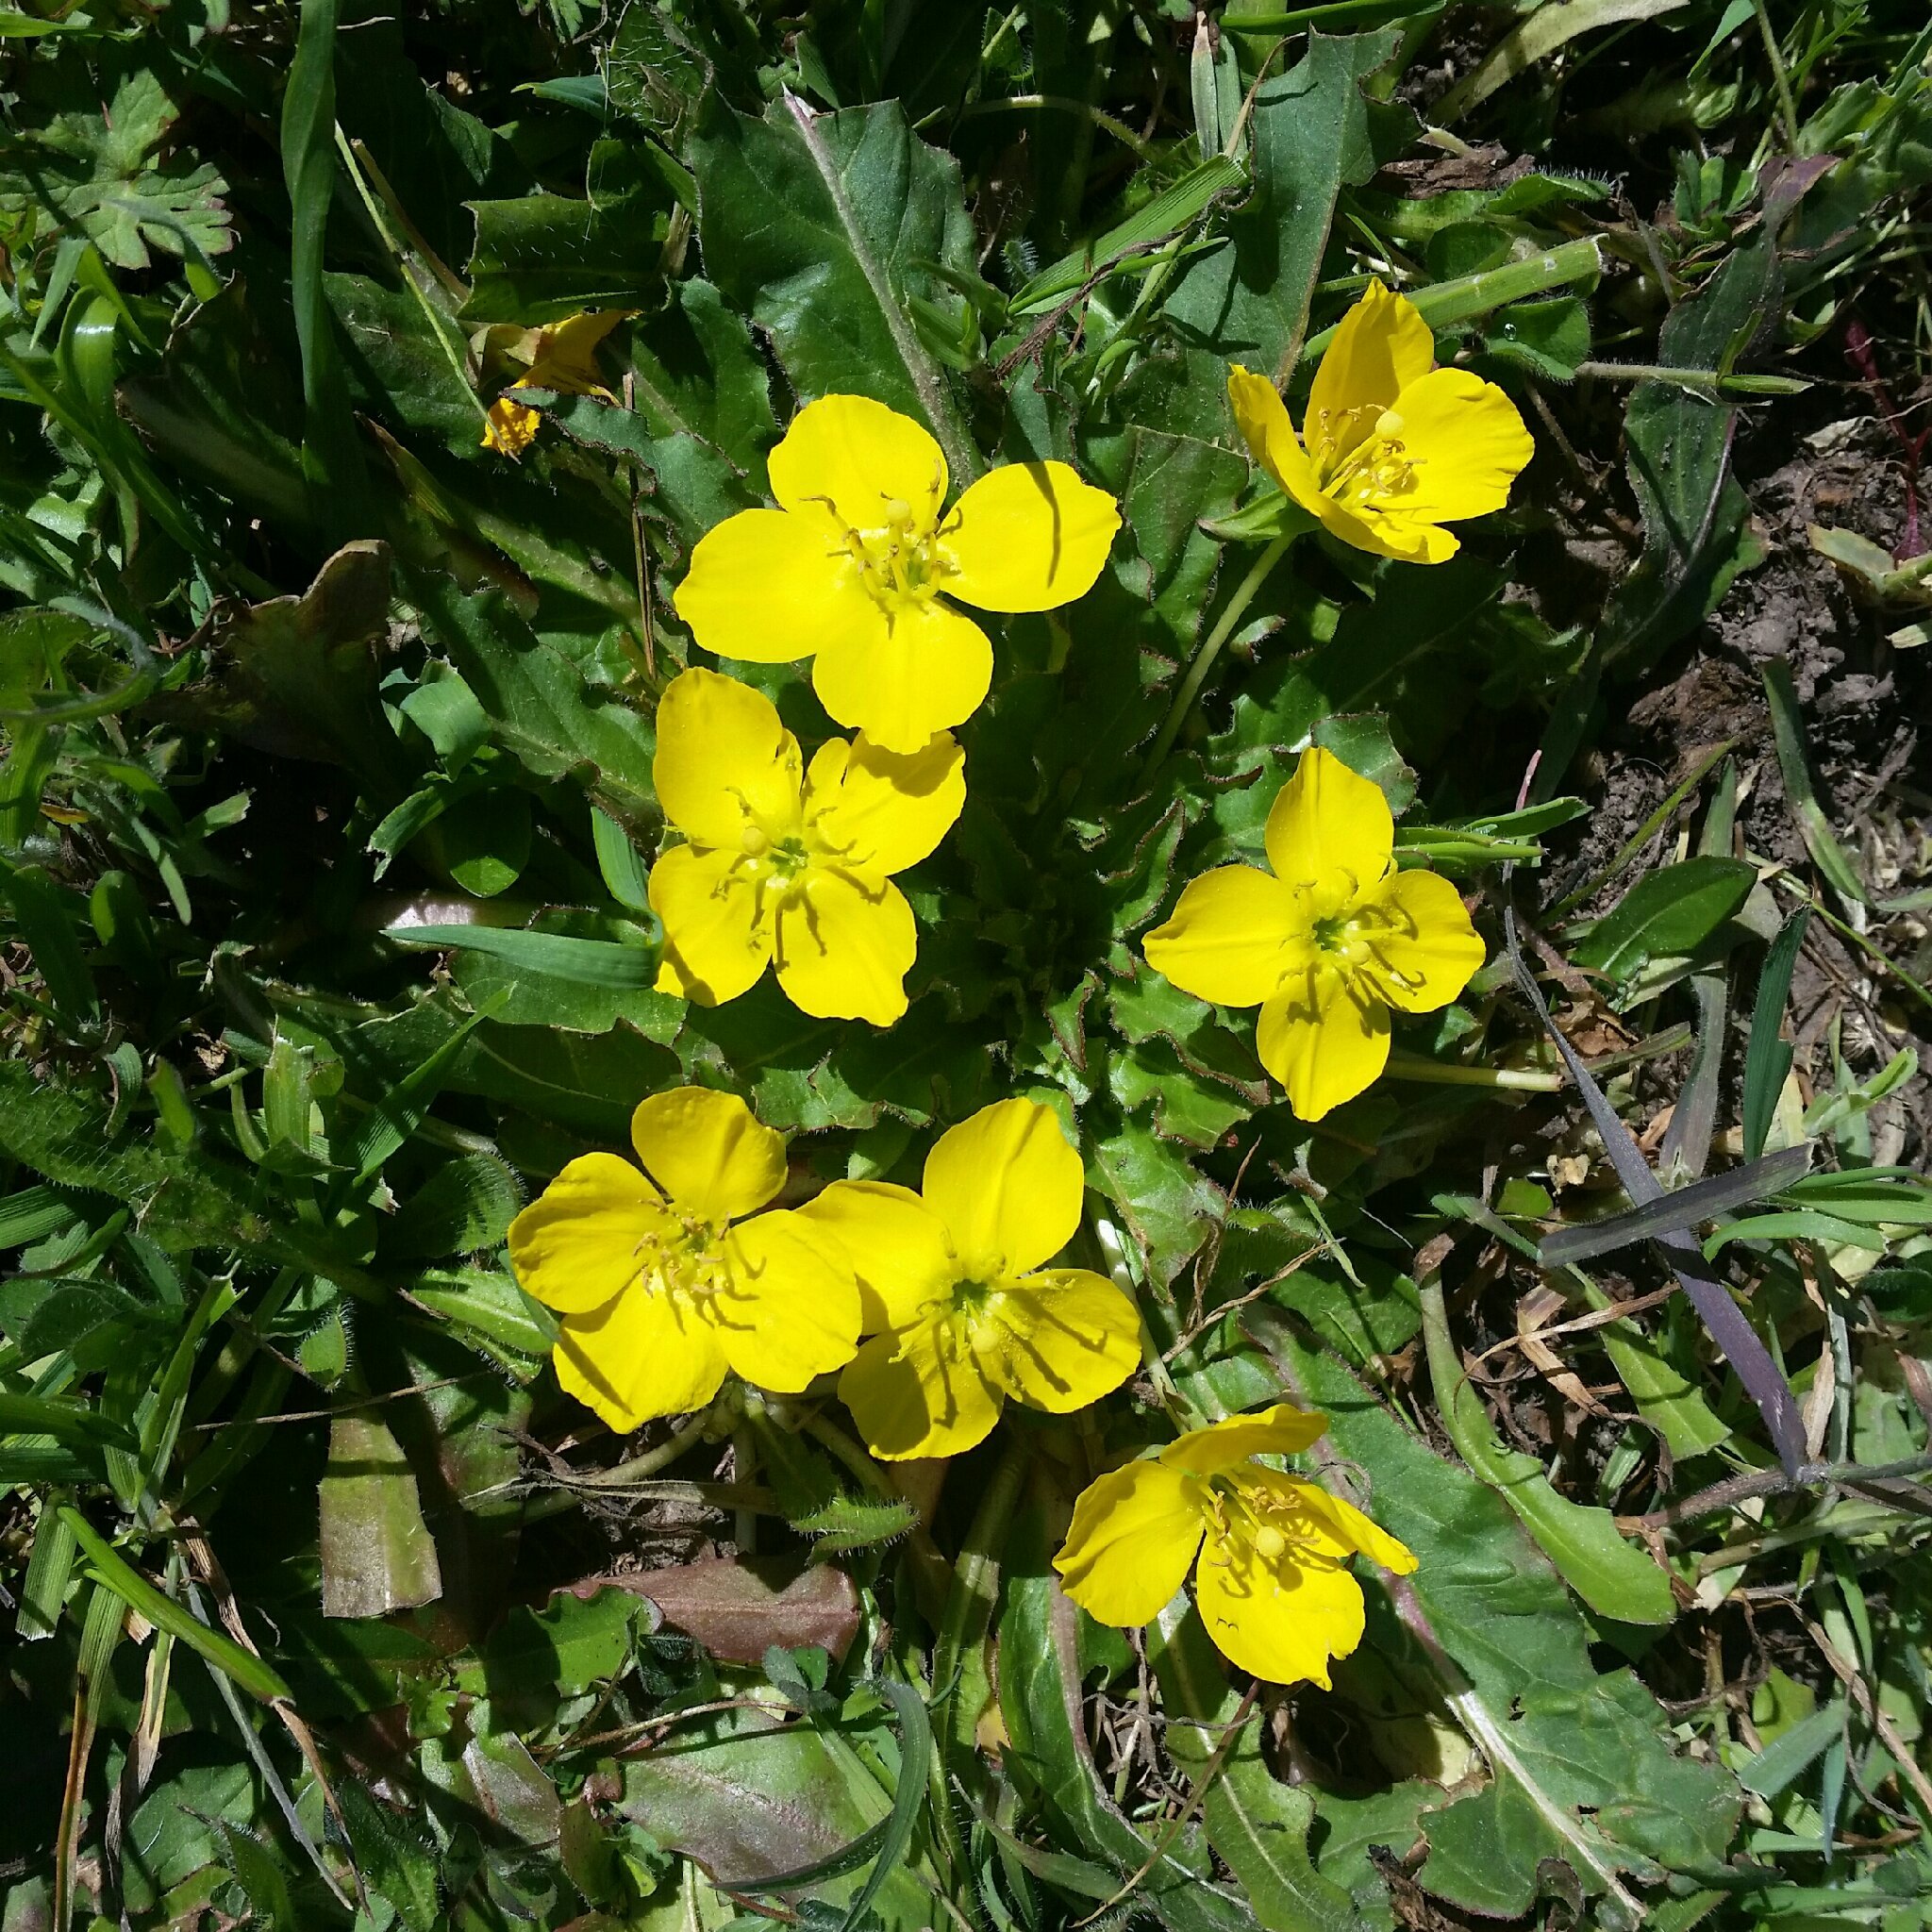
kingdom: Plantae
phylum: Tracheophyta
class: Magnoliopsida
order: Myrtales
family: Onagraceae
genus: Taraxia
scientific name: Taraxia ovata
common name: Goldeneggs
